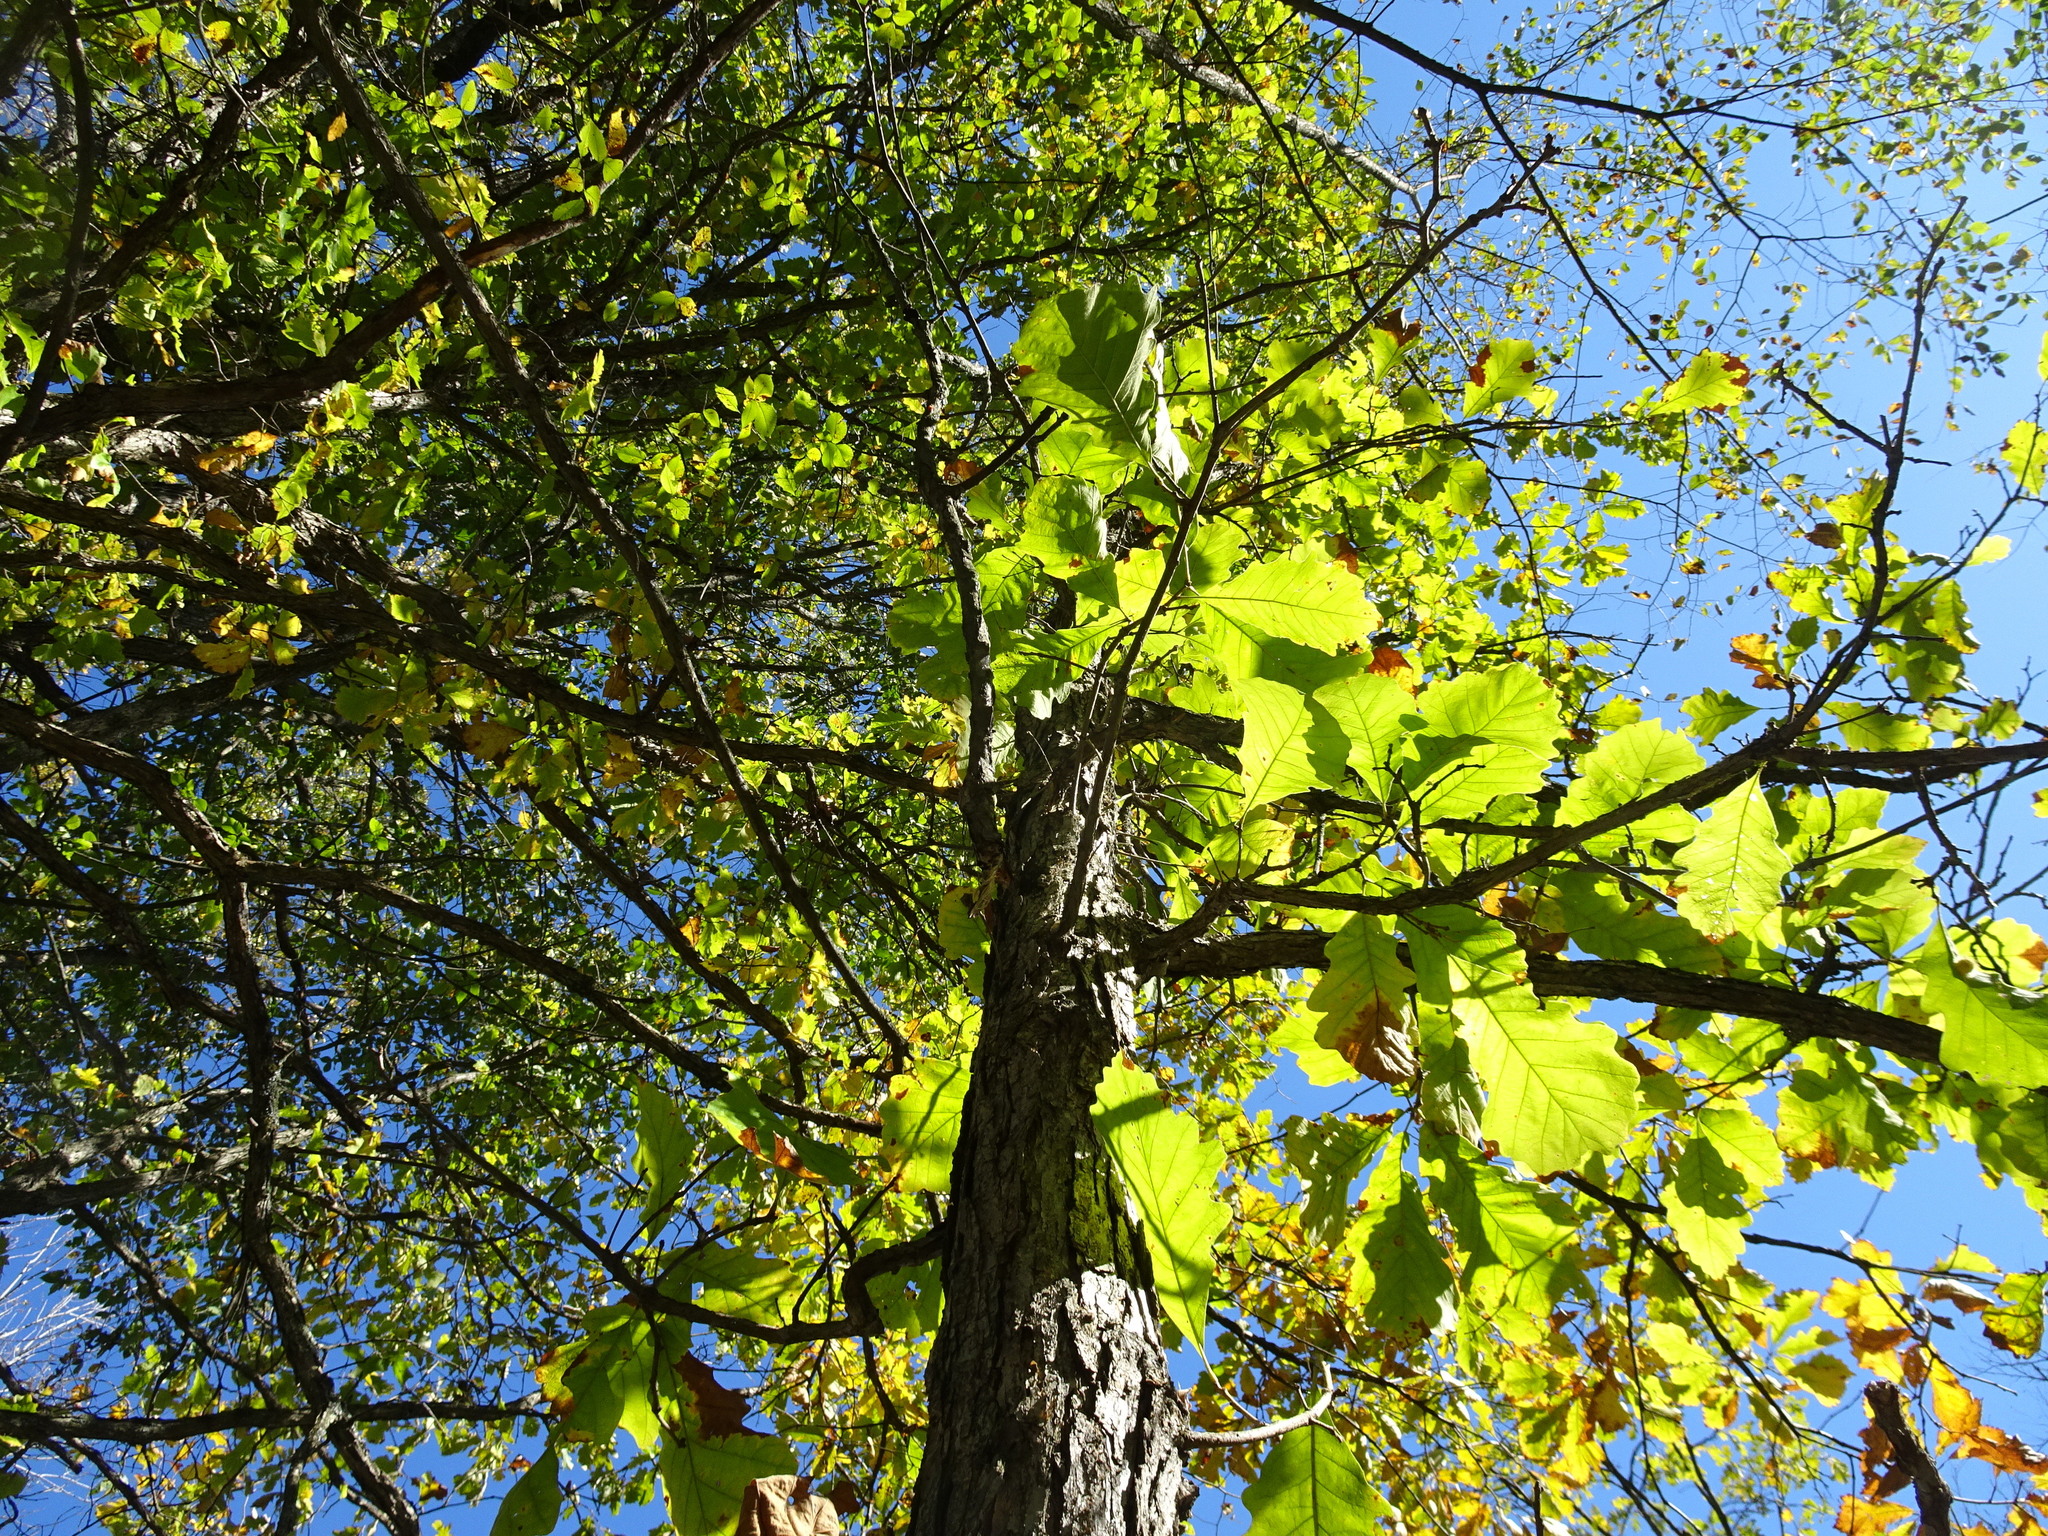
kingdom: Plantae
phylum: Tracheophyta
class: Magnoliopsida
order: Fagales
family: Fagaceae
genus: Quercus
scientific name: Quercus macrocarpa
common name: Bur oak
